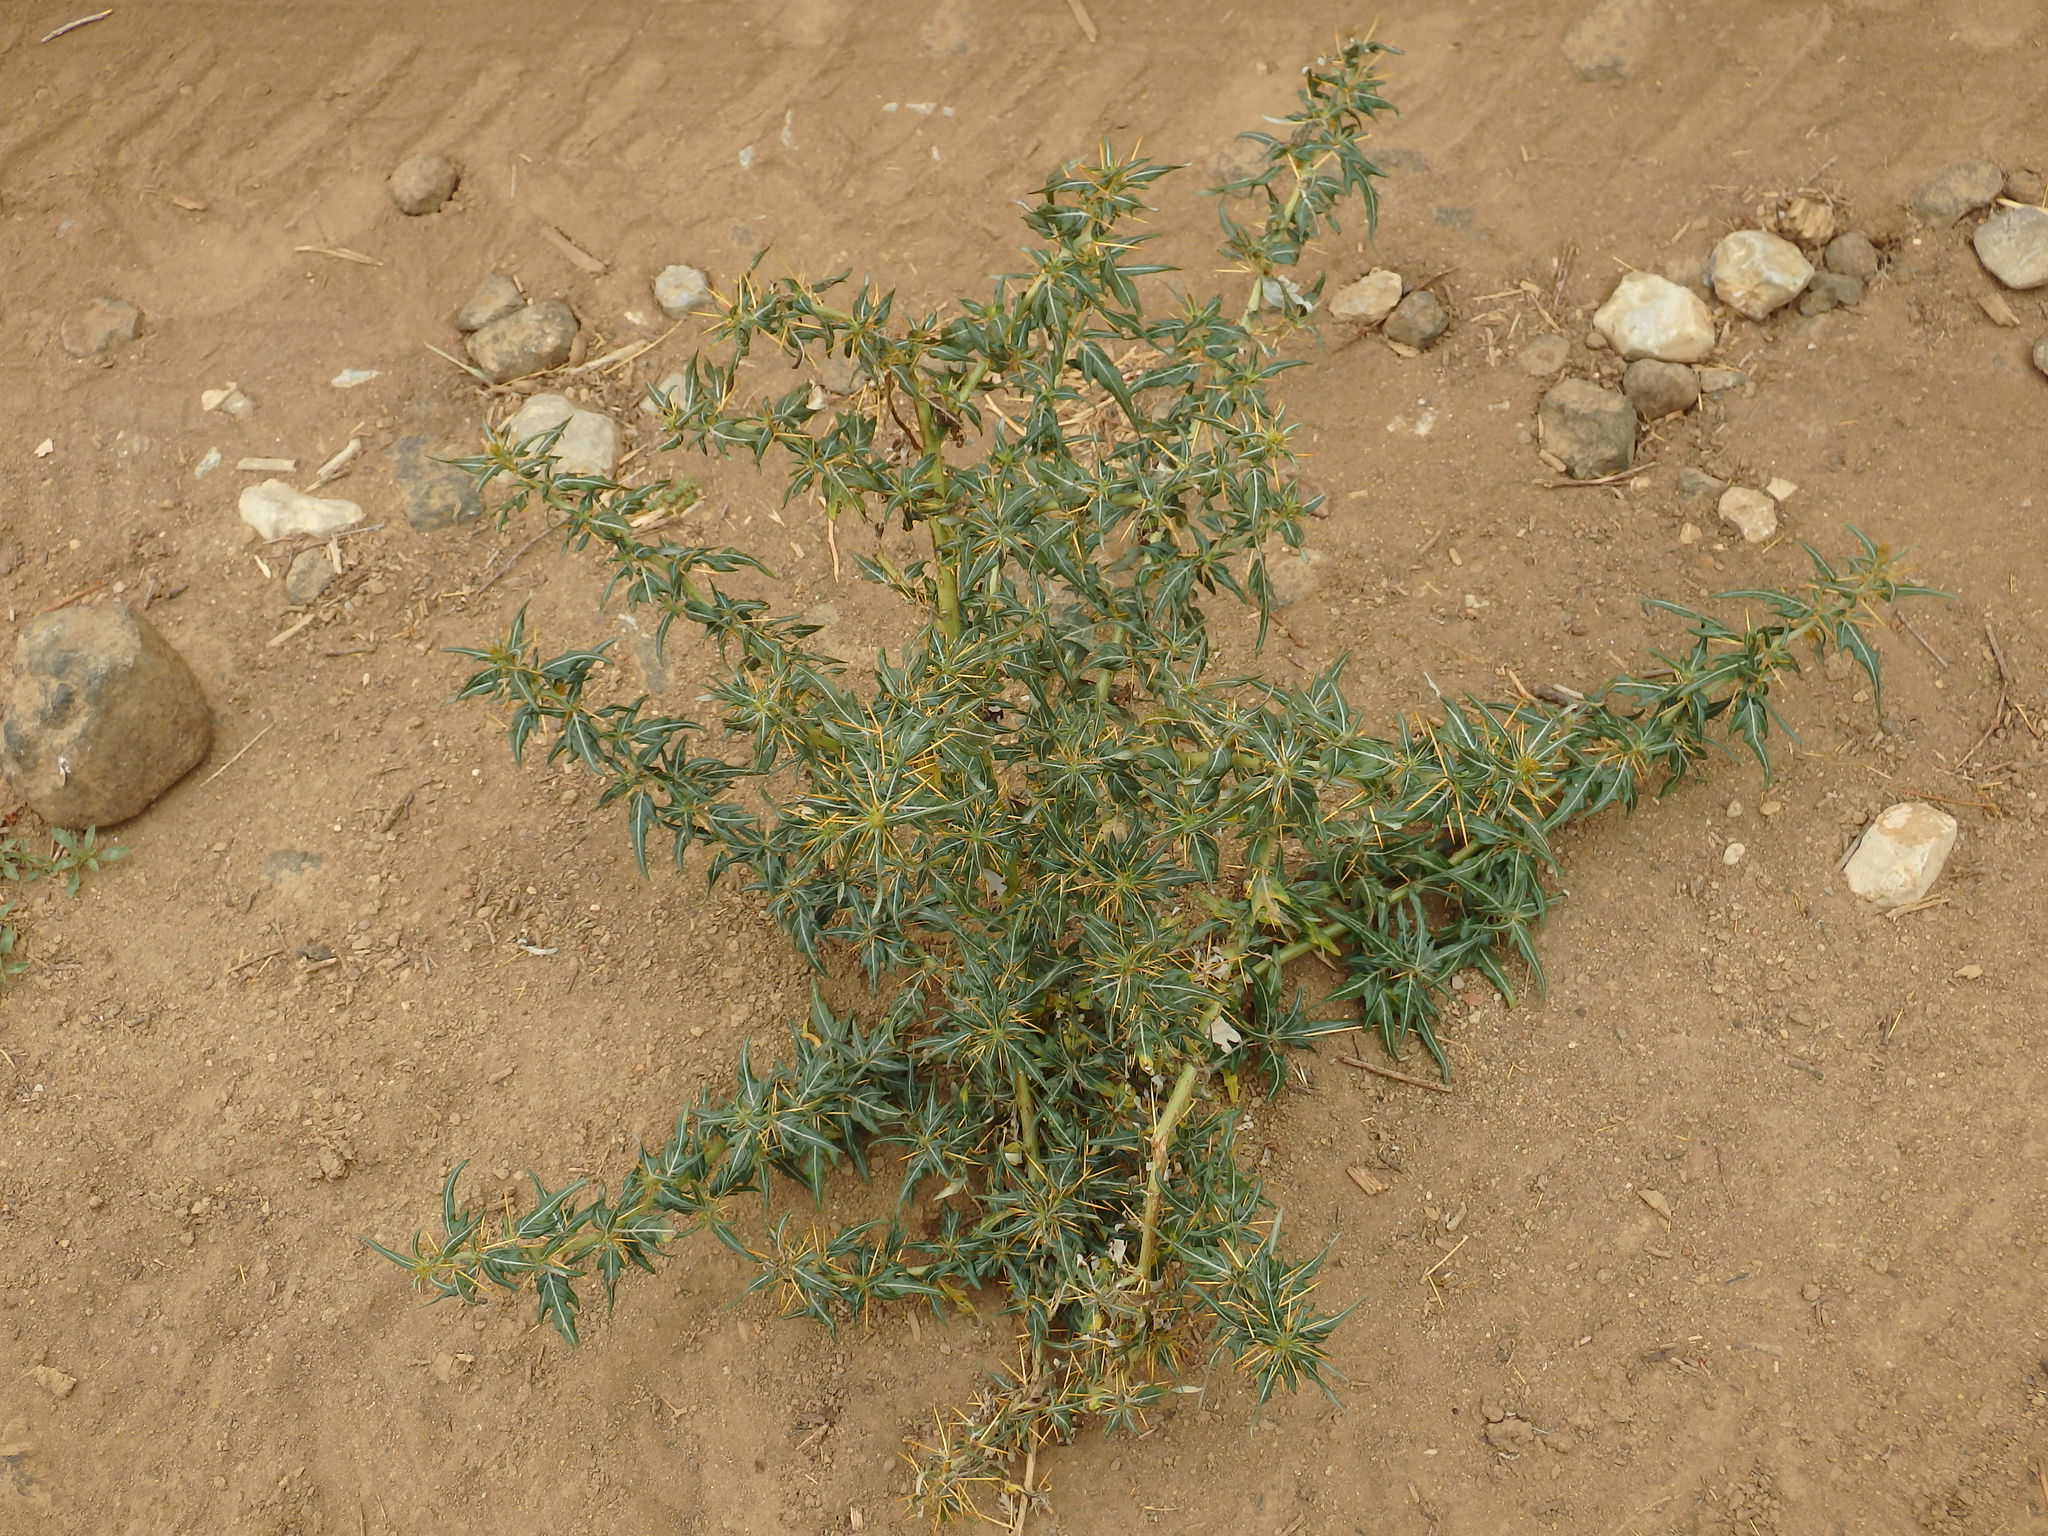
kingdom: Plantae
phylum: Tracheophyta
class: Magnoliopsida
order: Asterales
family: Asteraceae
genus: Xanthium
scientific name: Xanthium spinosum
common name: Spiny cocklebur
